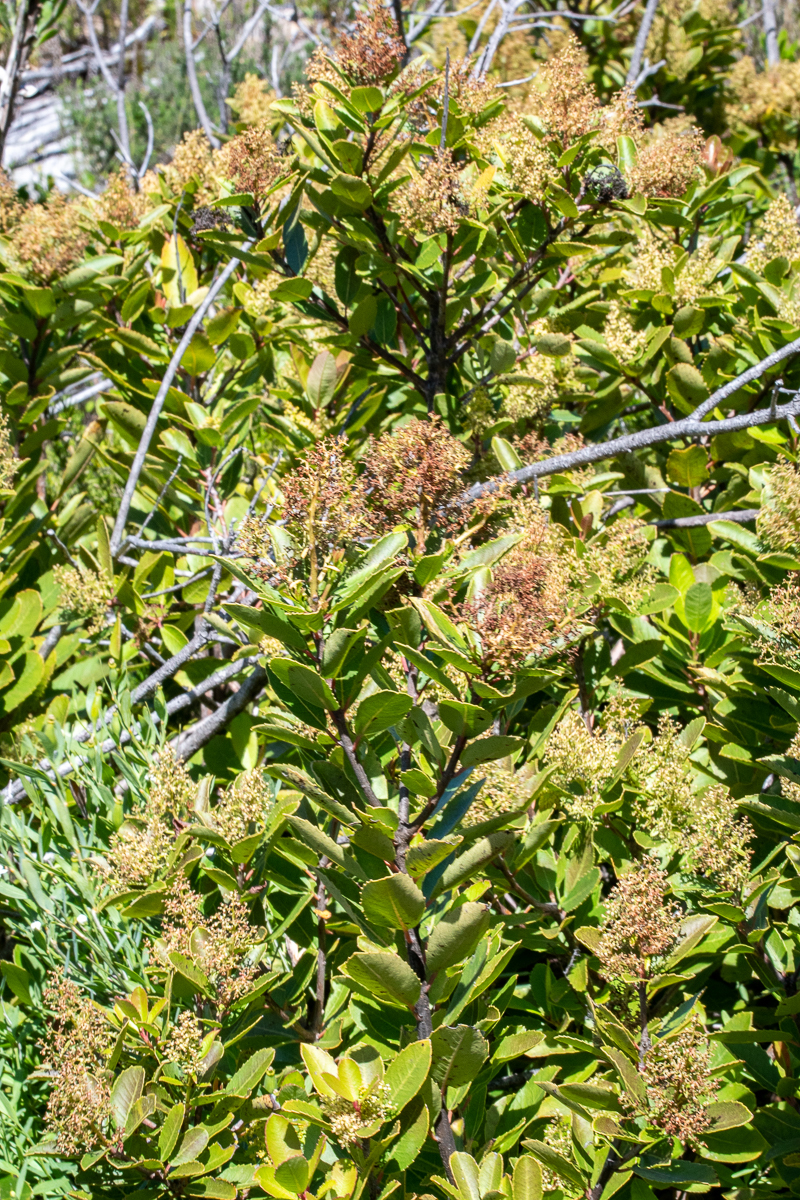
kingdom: Plantae
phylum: Tracheophyta
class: Magnoliopsida
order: Sapindales
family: Anacardiaceae
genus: Laurophyllus
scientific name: Laurophyllus capensis
